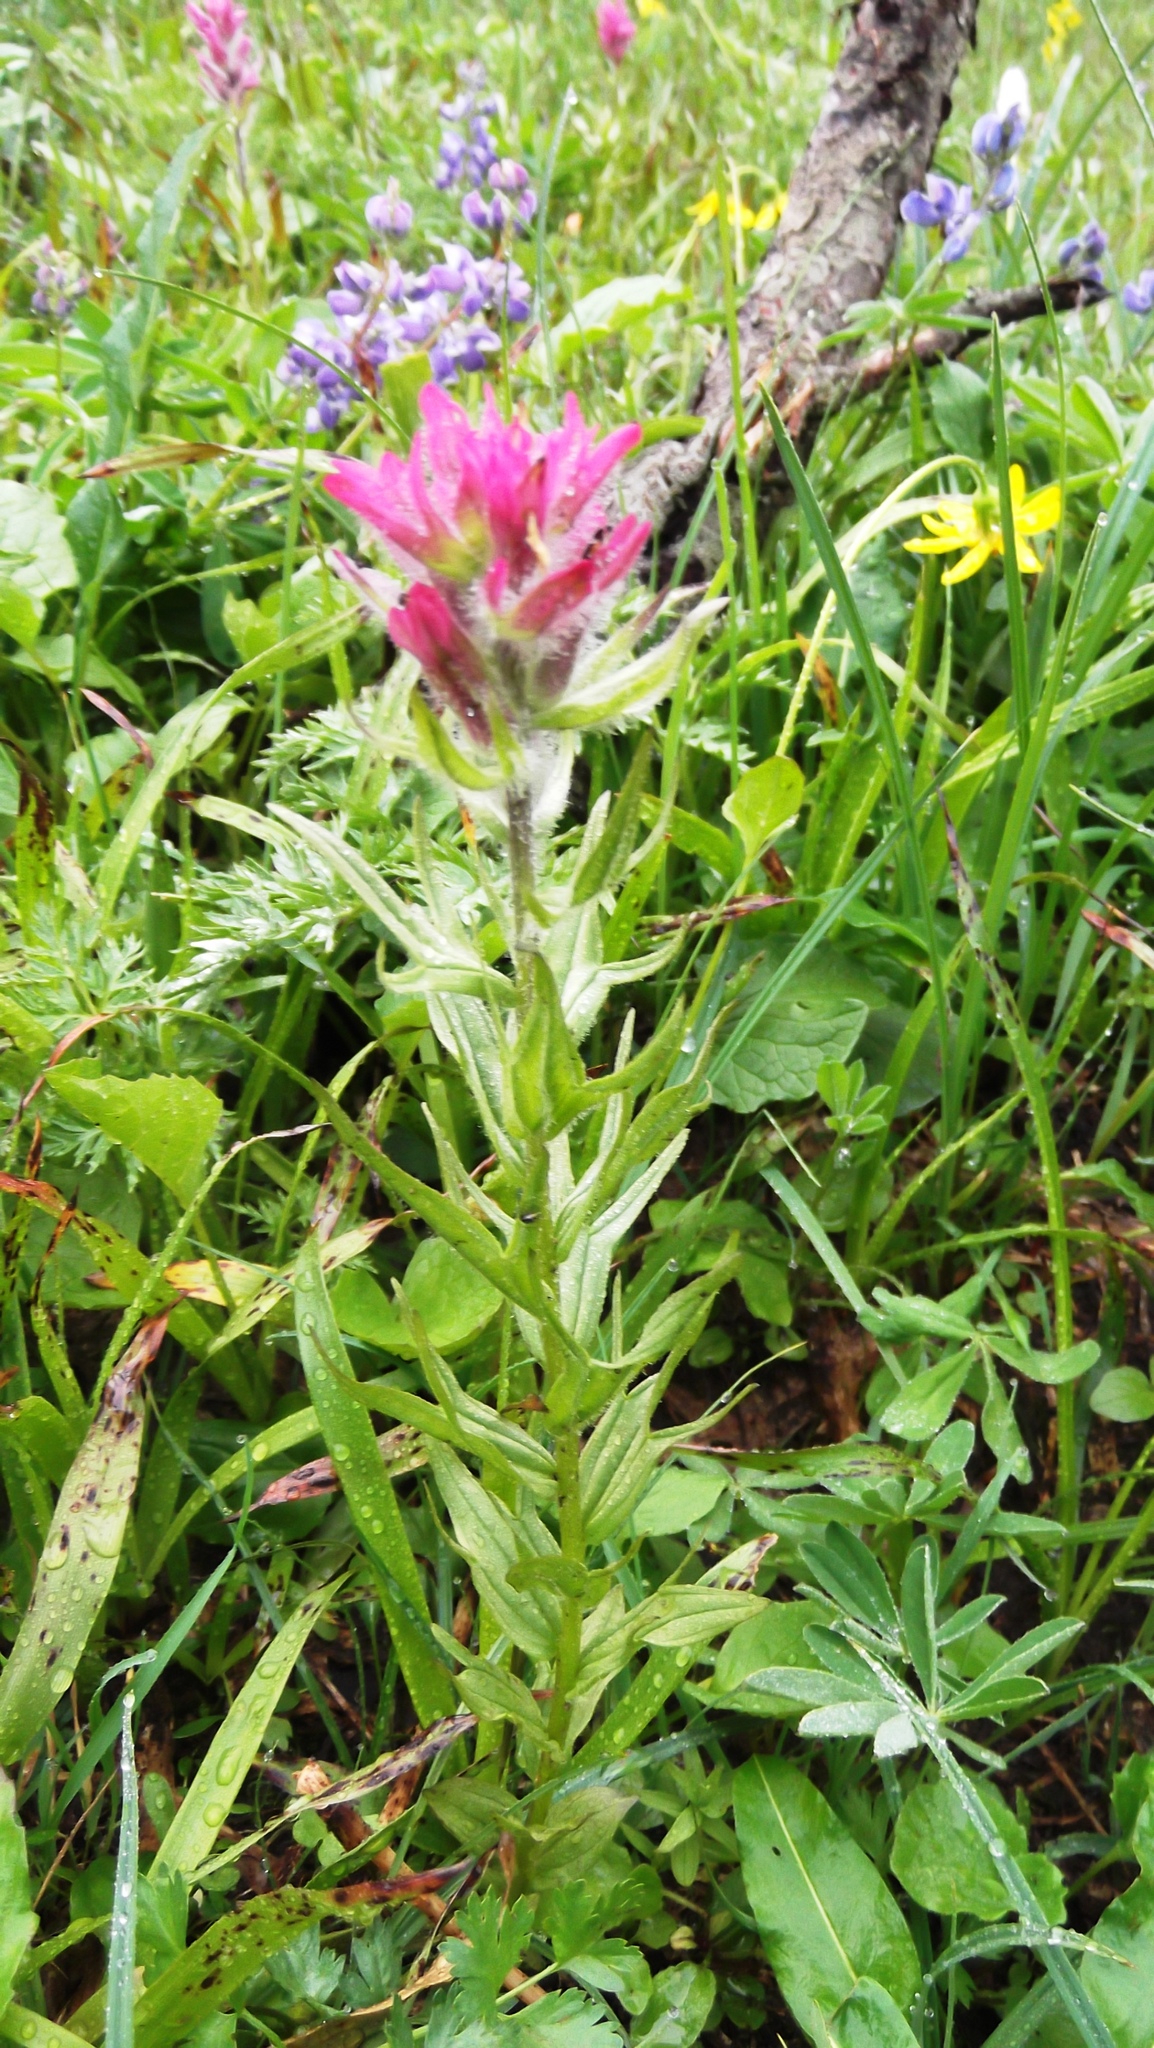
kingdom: Plantae
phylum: Tracheophyta
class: Magnoliopsida
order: Lamiales
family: Orobanchaceae
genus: Castilleja
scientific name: Castilleja parviflora
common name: Mountain paintbrush
